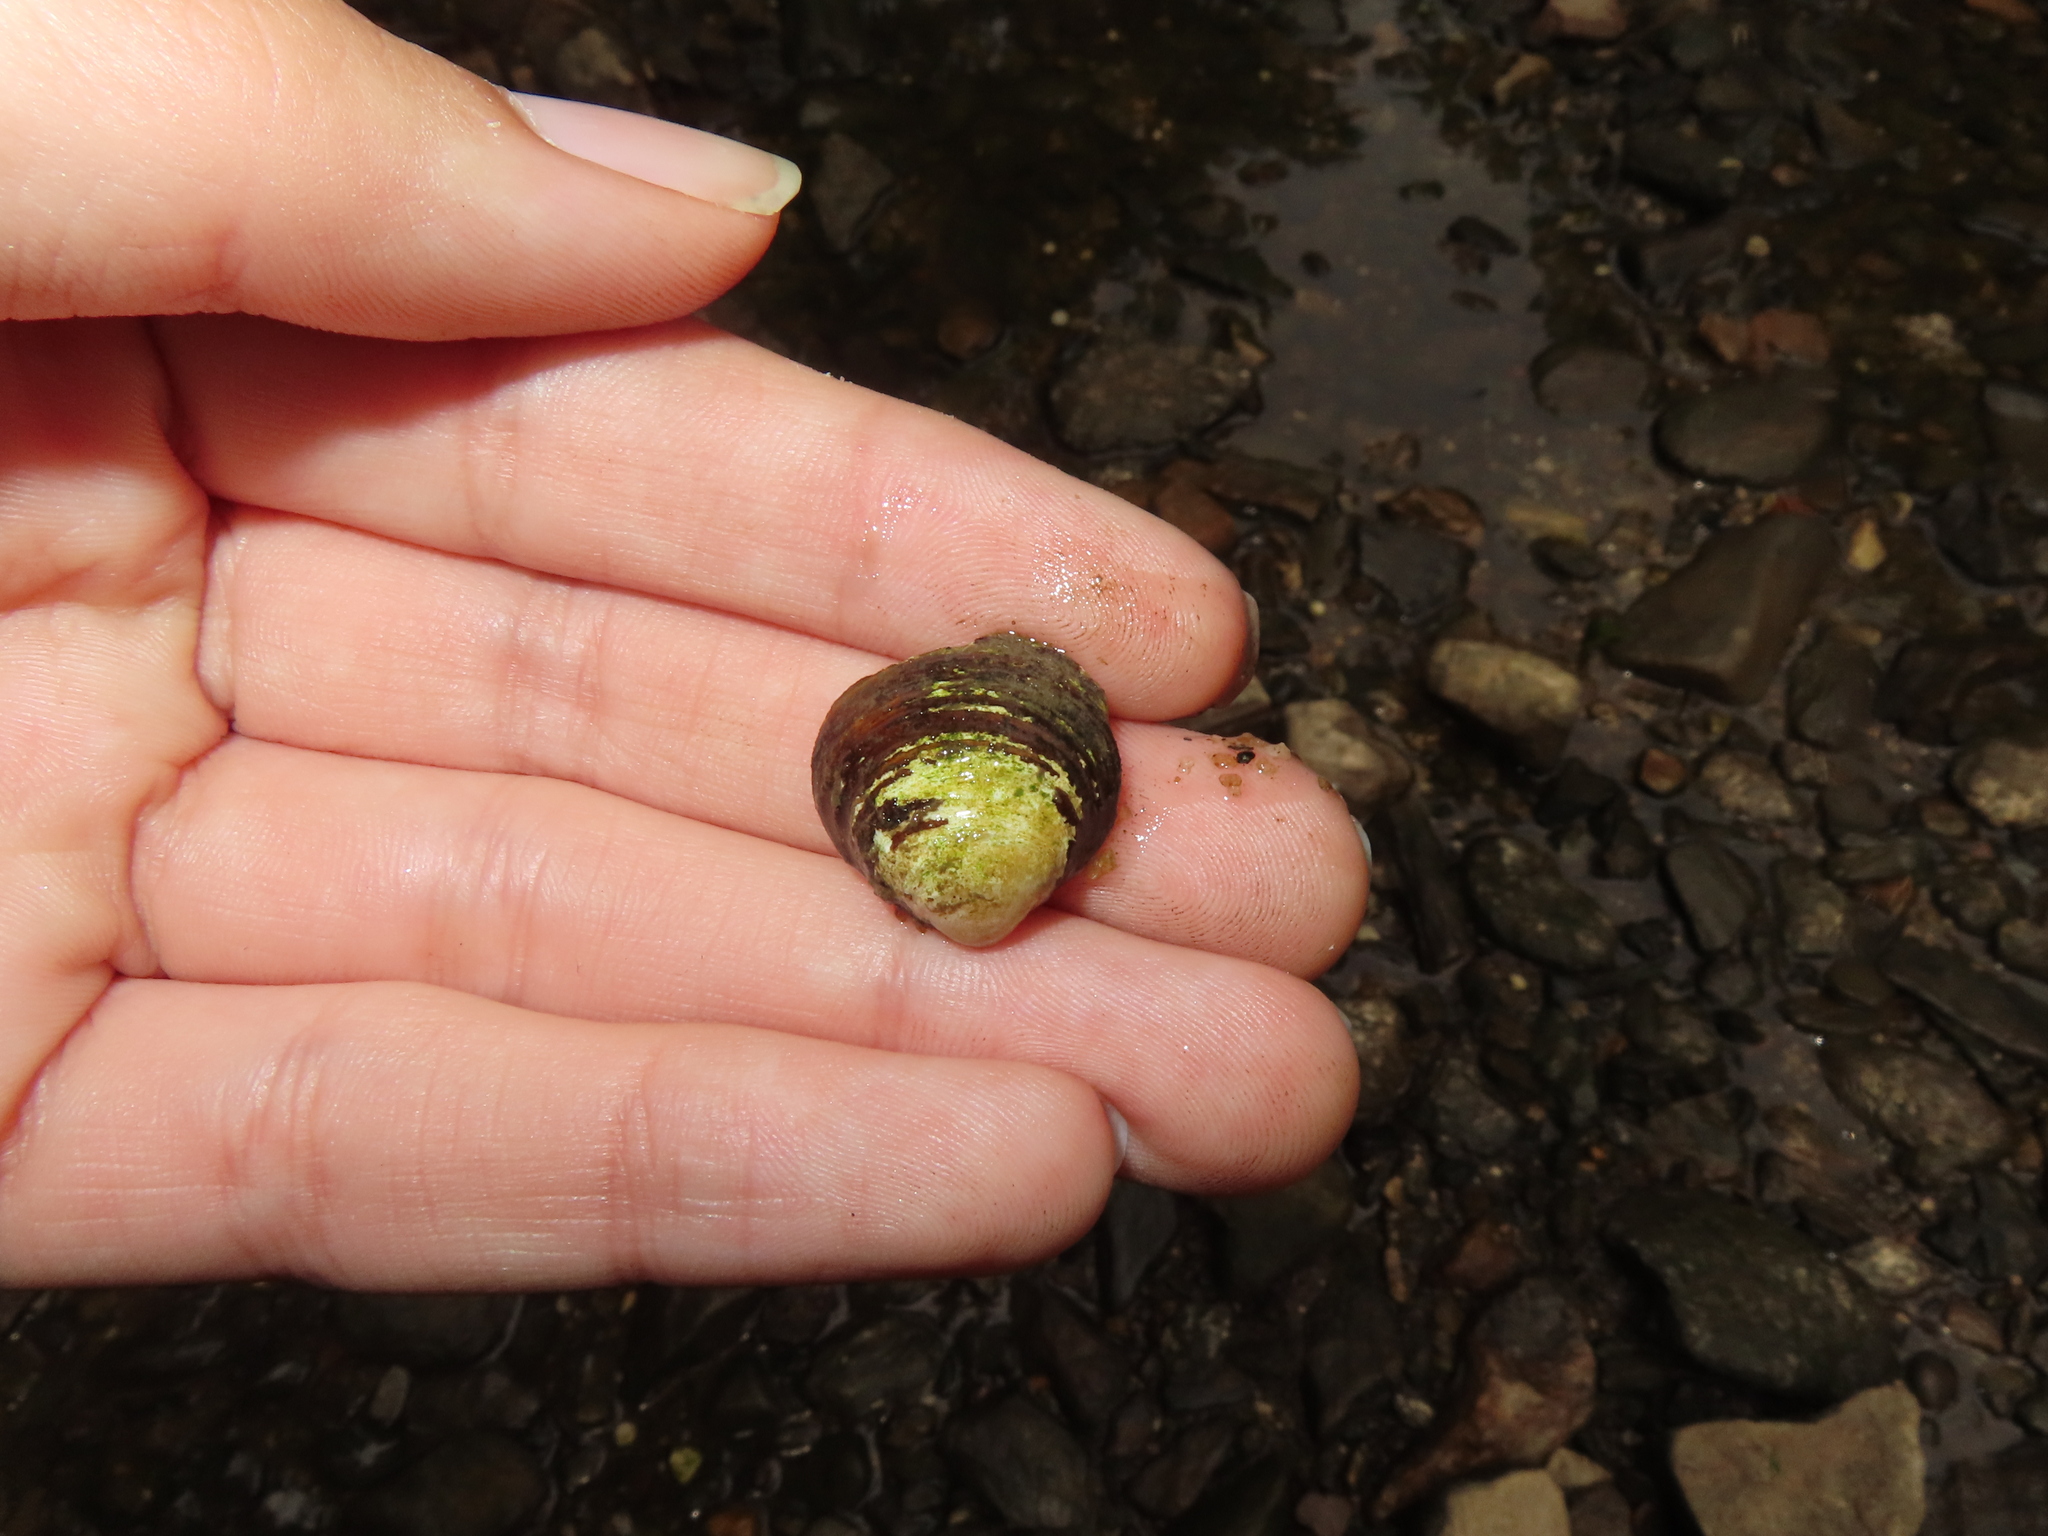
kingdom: Animalia
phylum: Mollusca
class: Bivalvia
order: Venerida
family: Cyrenidae
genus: Corbicula
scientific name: Corbicula fluminea
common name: Asian clam
